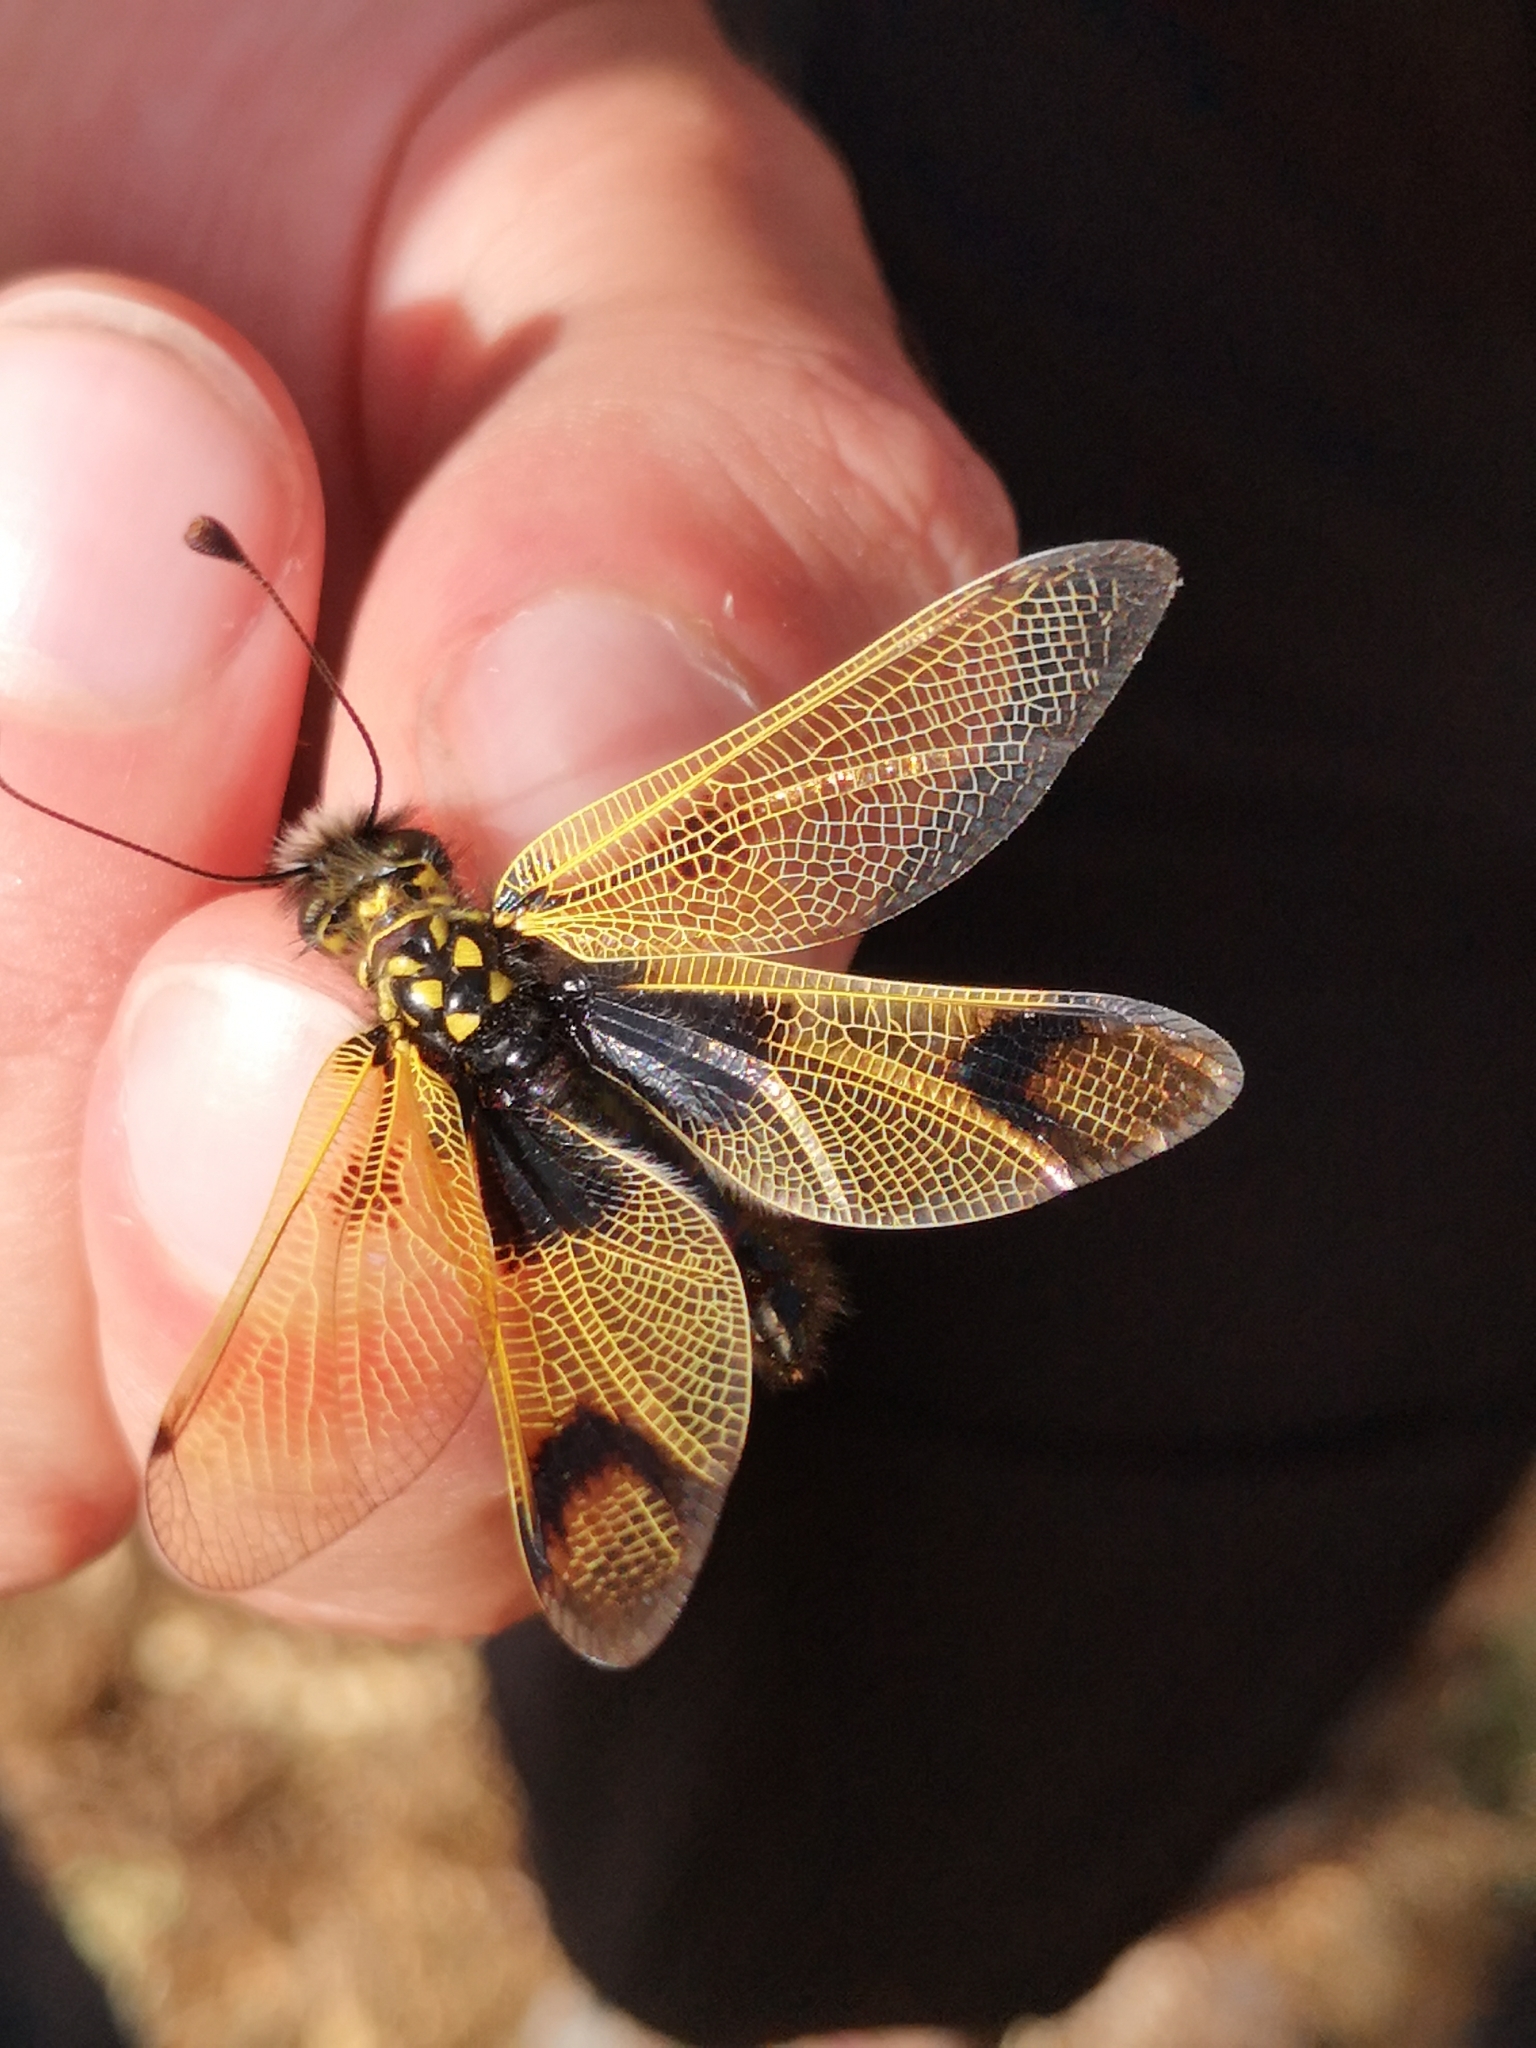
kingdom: Animalia
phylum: Arthropoda
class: Insecta
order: Neuroptera
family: Ascalaphidae
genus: Libelloides
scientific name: Libelloides longicornis
